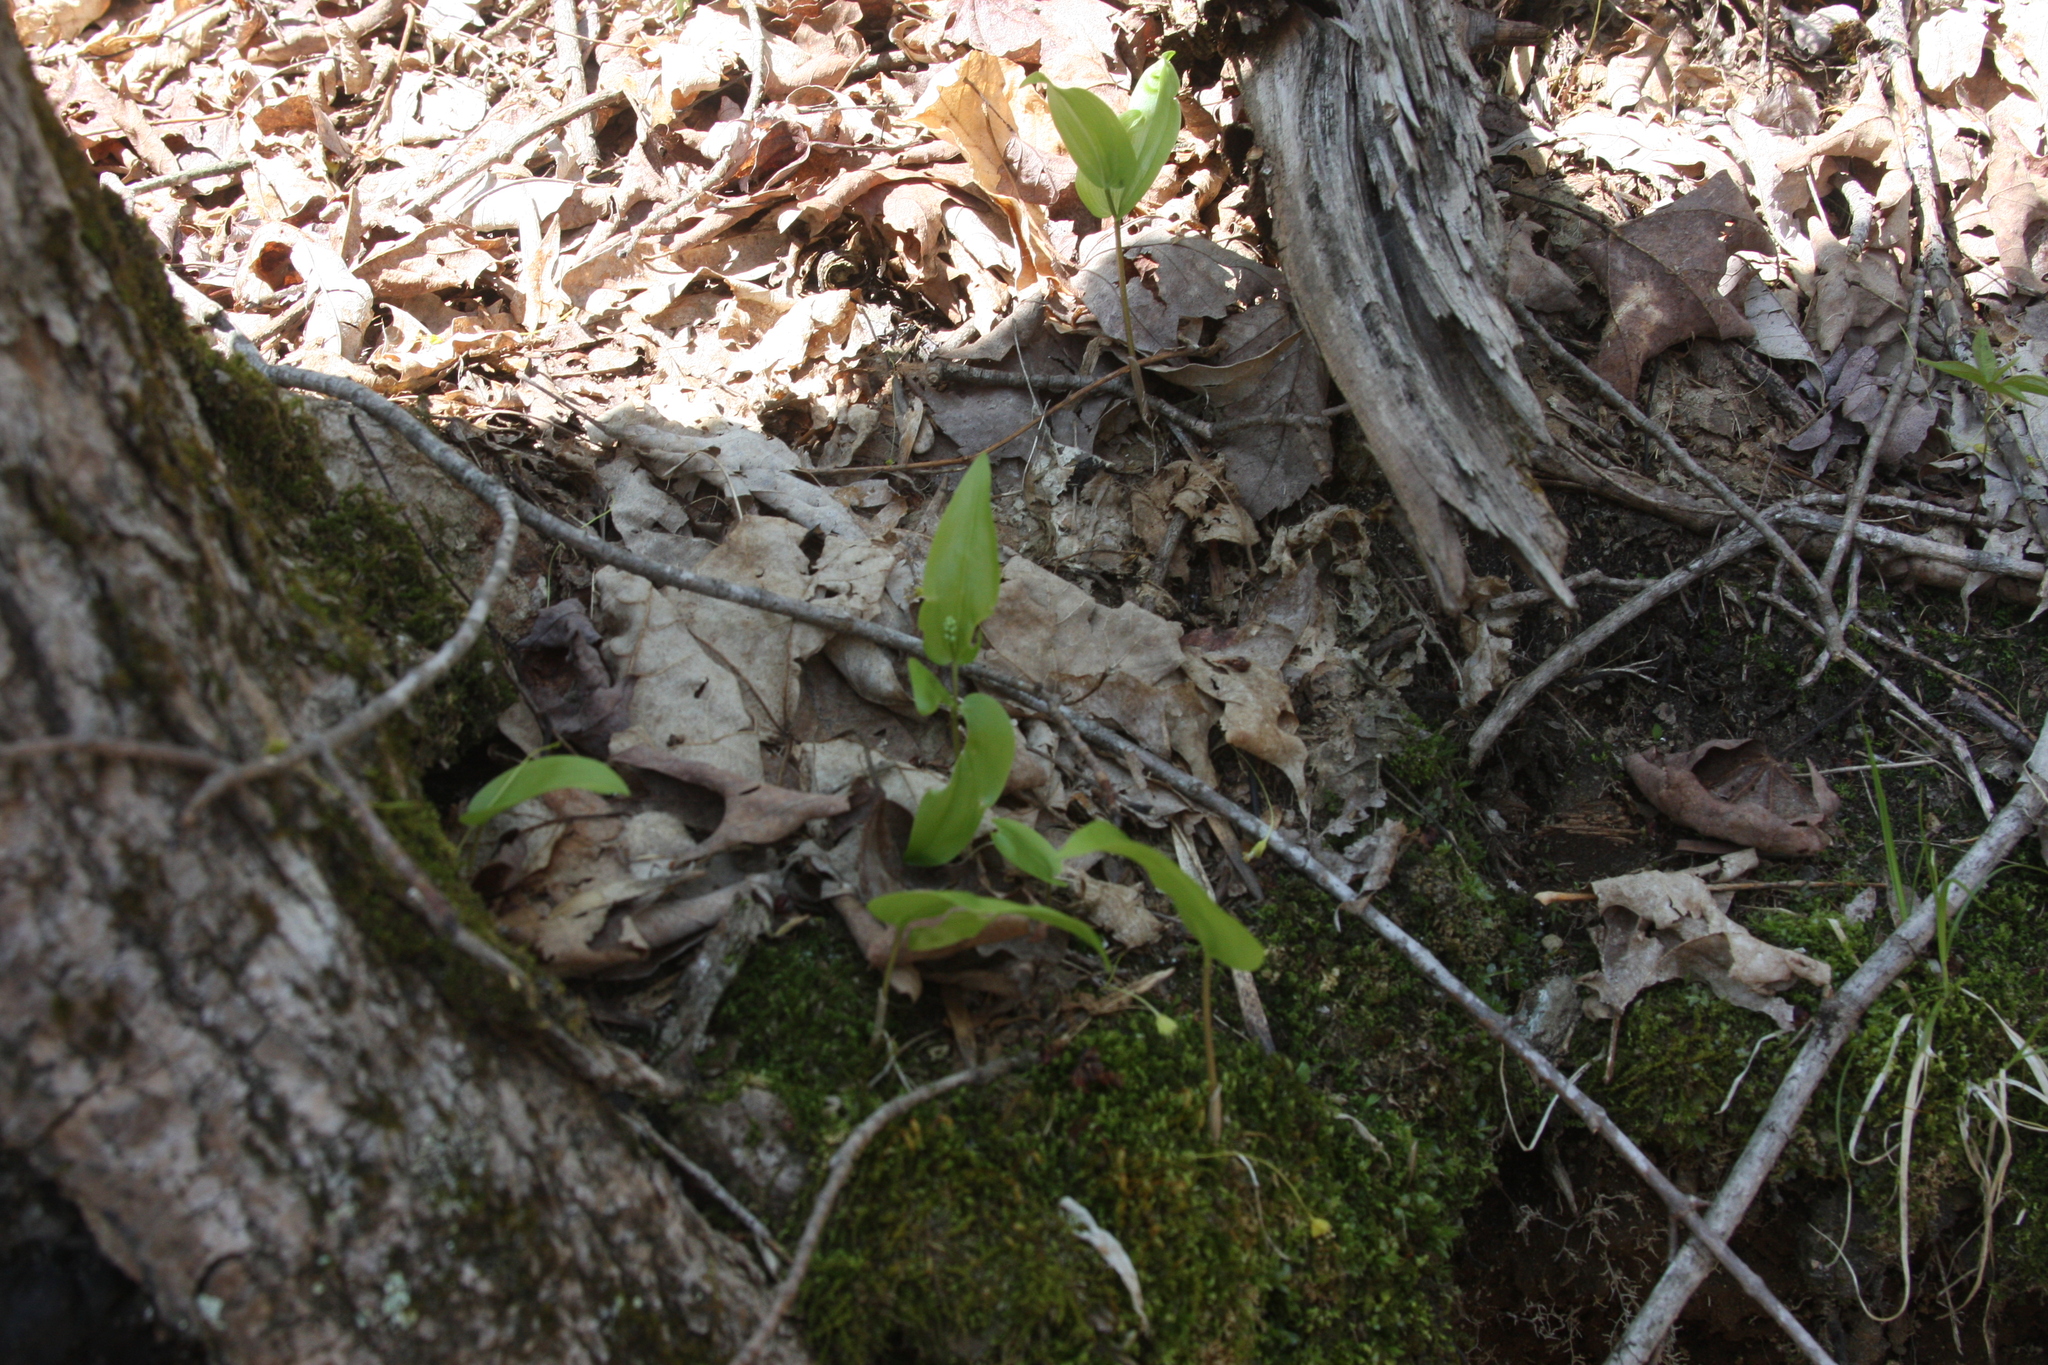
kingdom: Plantae
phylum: Tracheophyta
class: Liliopsida
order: Asparagales
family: Asparagaceae
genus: Maianthemum
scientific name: Maianthemum canadense
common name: False lily-of-the-valley
